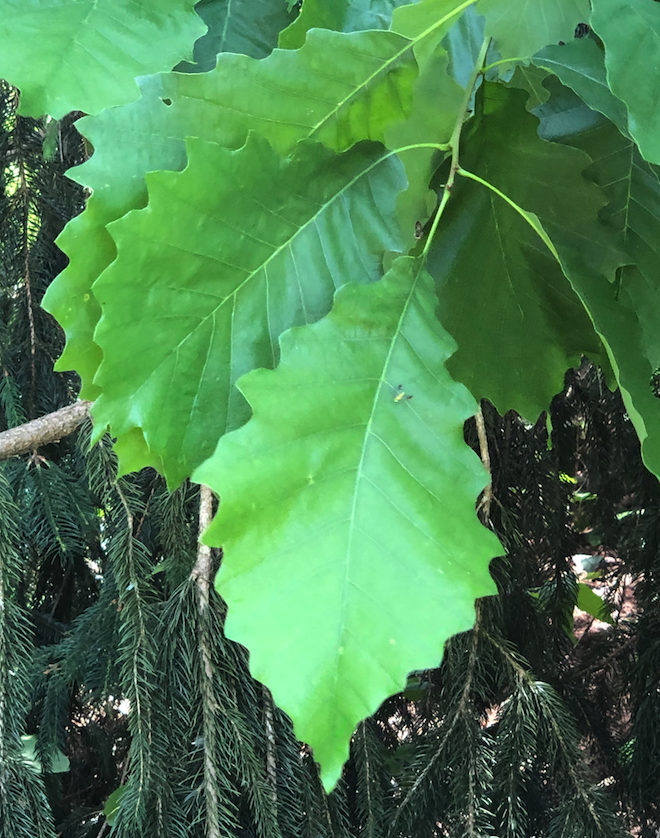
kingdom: Plantae
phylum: Tracheophyta
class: Magnoliopsida
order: Fagales
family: Fagaceae
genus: Quercus
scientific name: Quercus muehlenbergii
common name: Chinkapin oak
